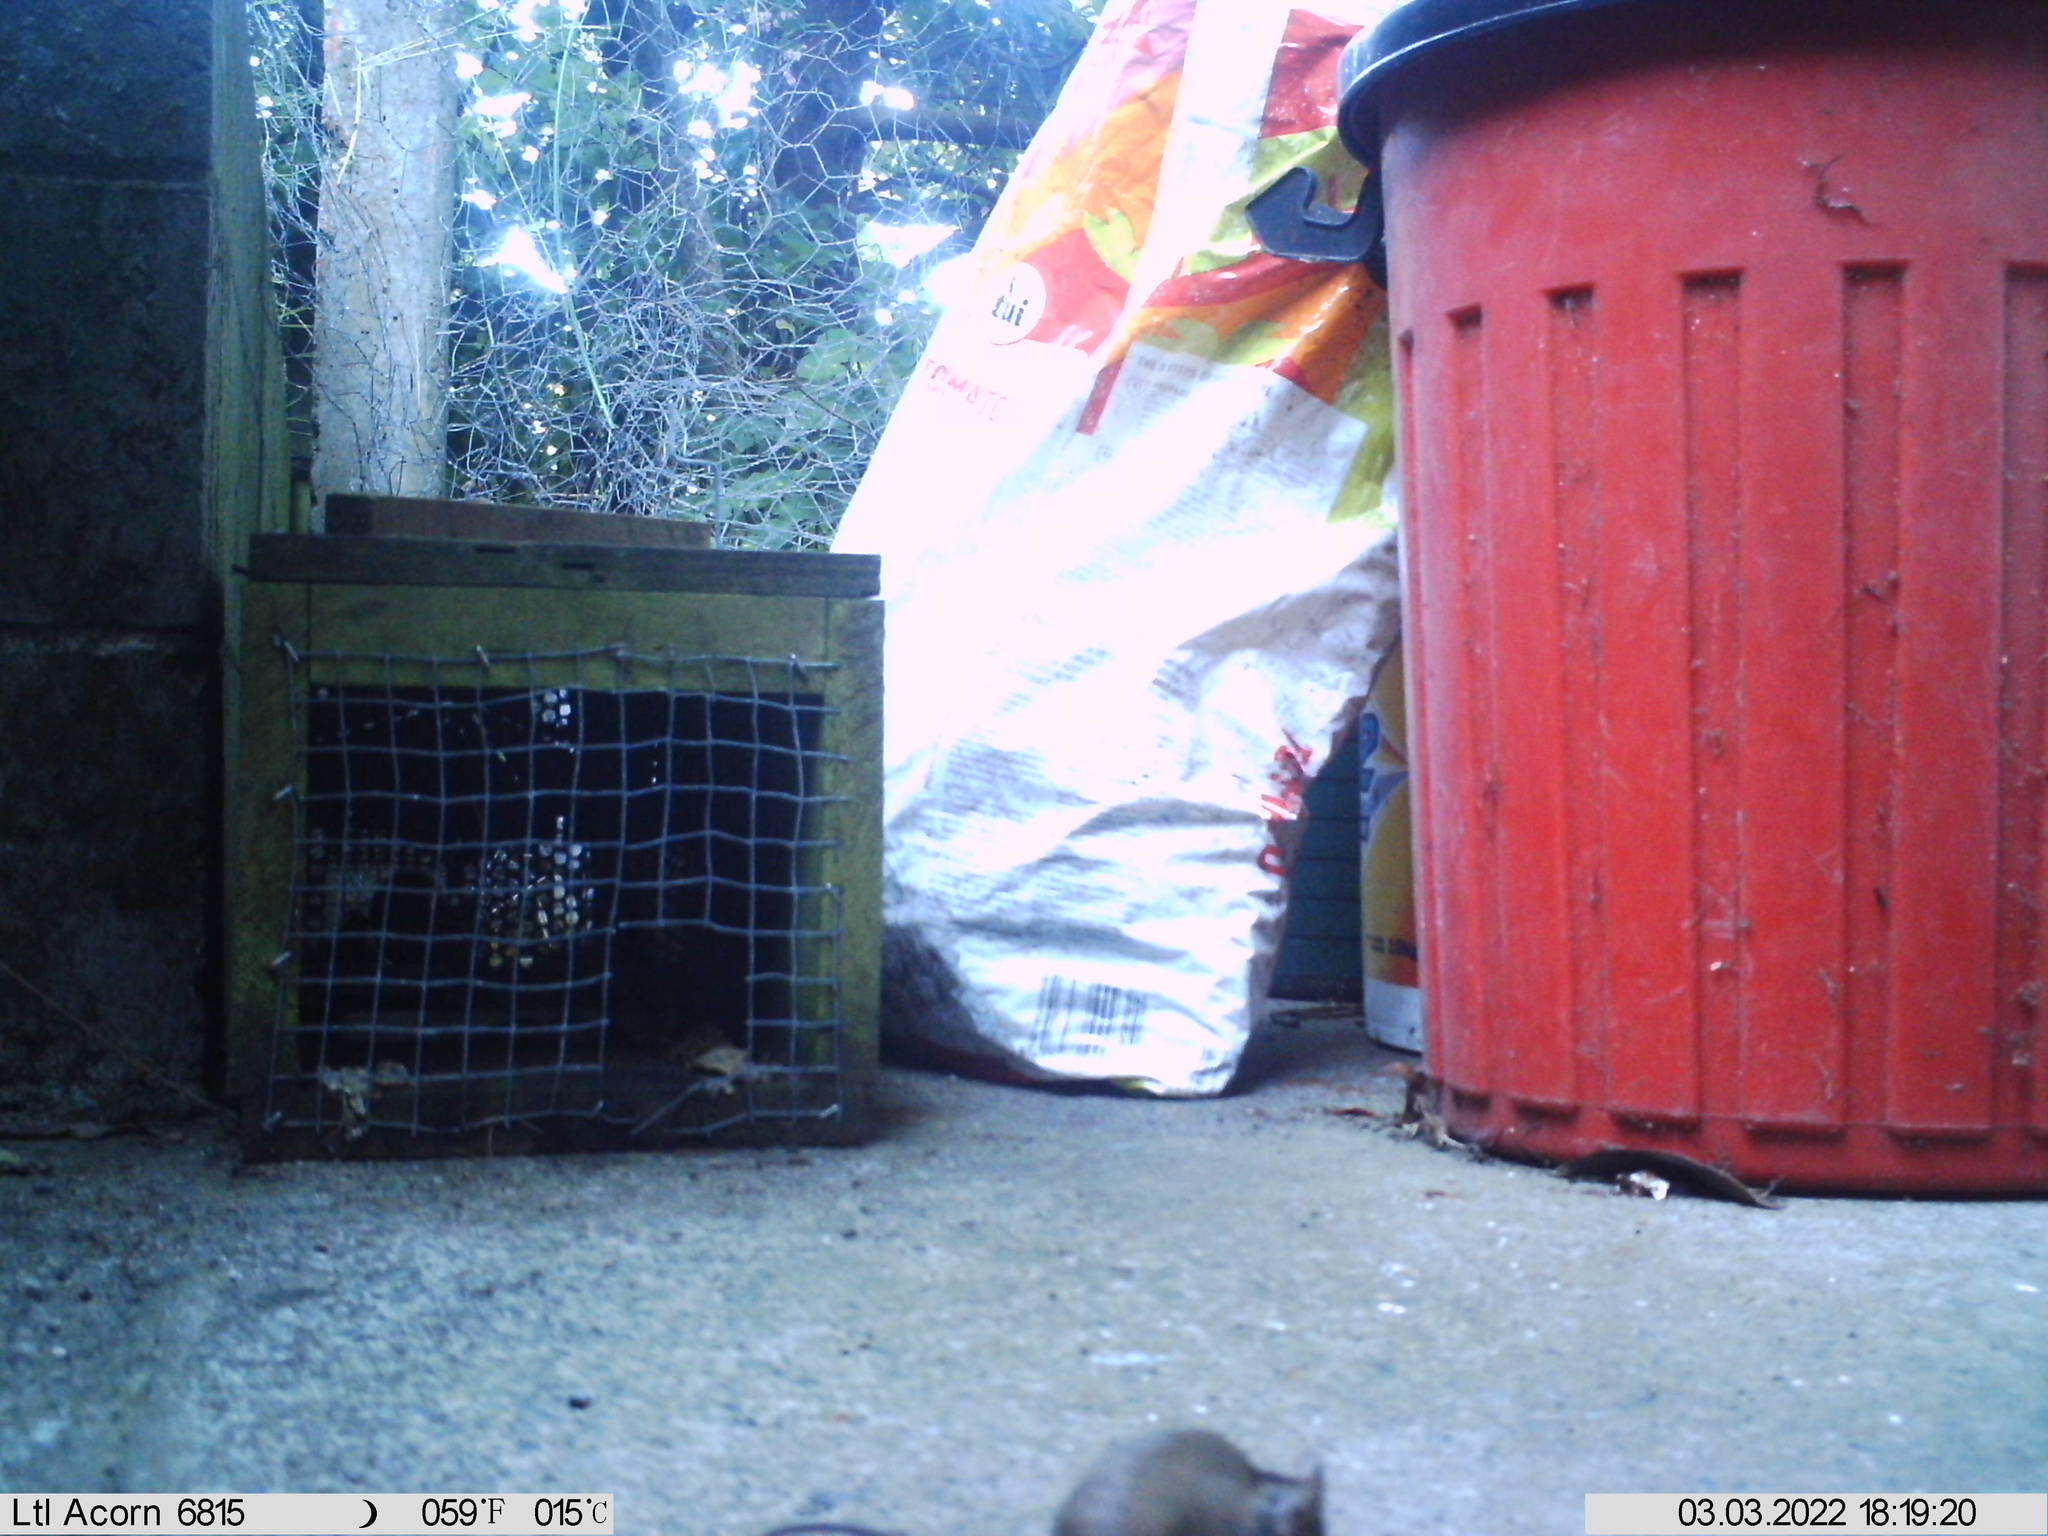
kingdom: Animalia
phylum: Chordata
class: Mammalia
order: Rodentia
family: Muridae
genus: Mus
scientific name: Mus musculus
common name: House mouse
